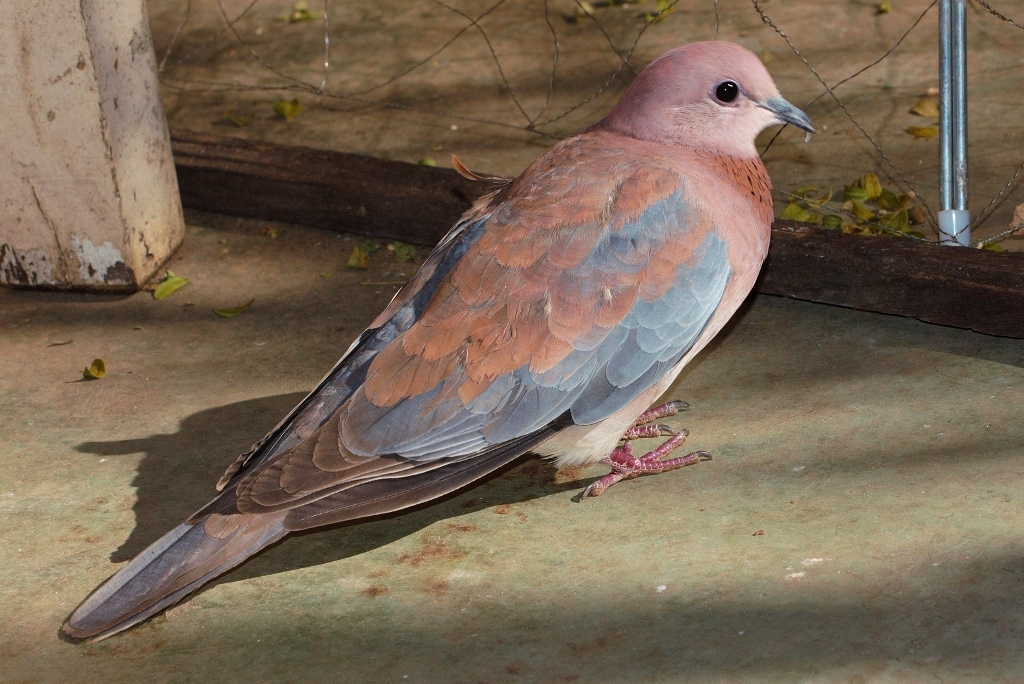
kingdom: Animalia
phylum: Chordata
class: Aves
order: Columbiformes
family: Columbidae
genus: Spilopelia
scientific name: Spilopelia senegalensis
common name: Laughing dove
